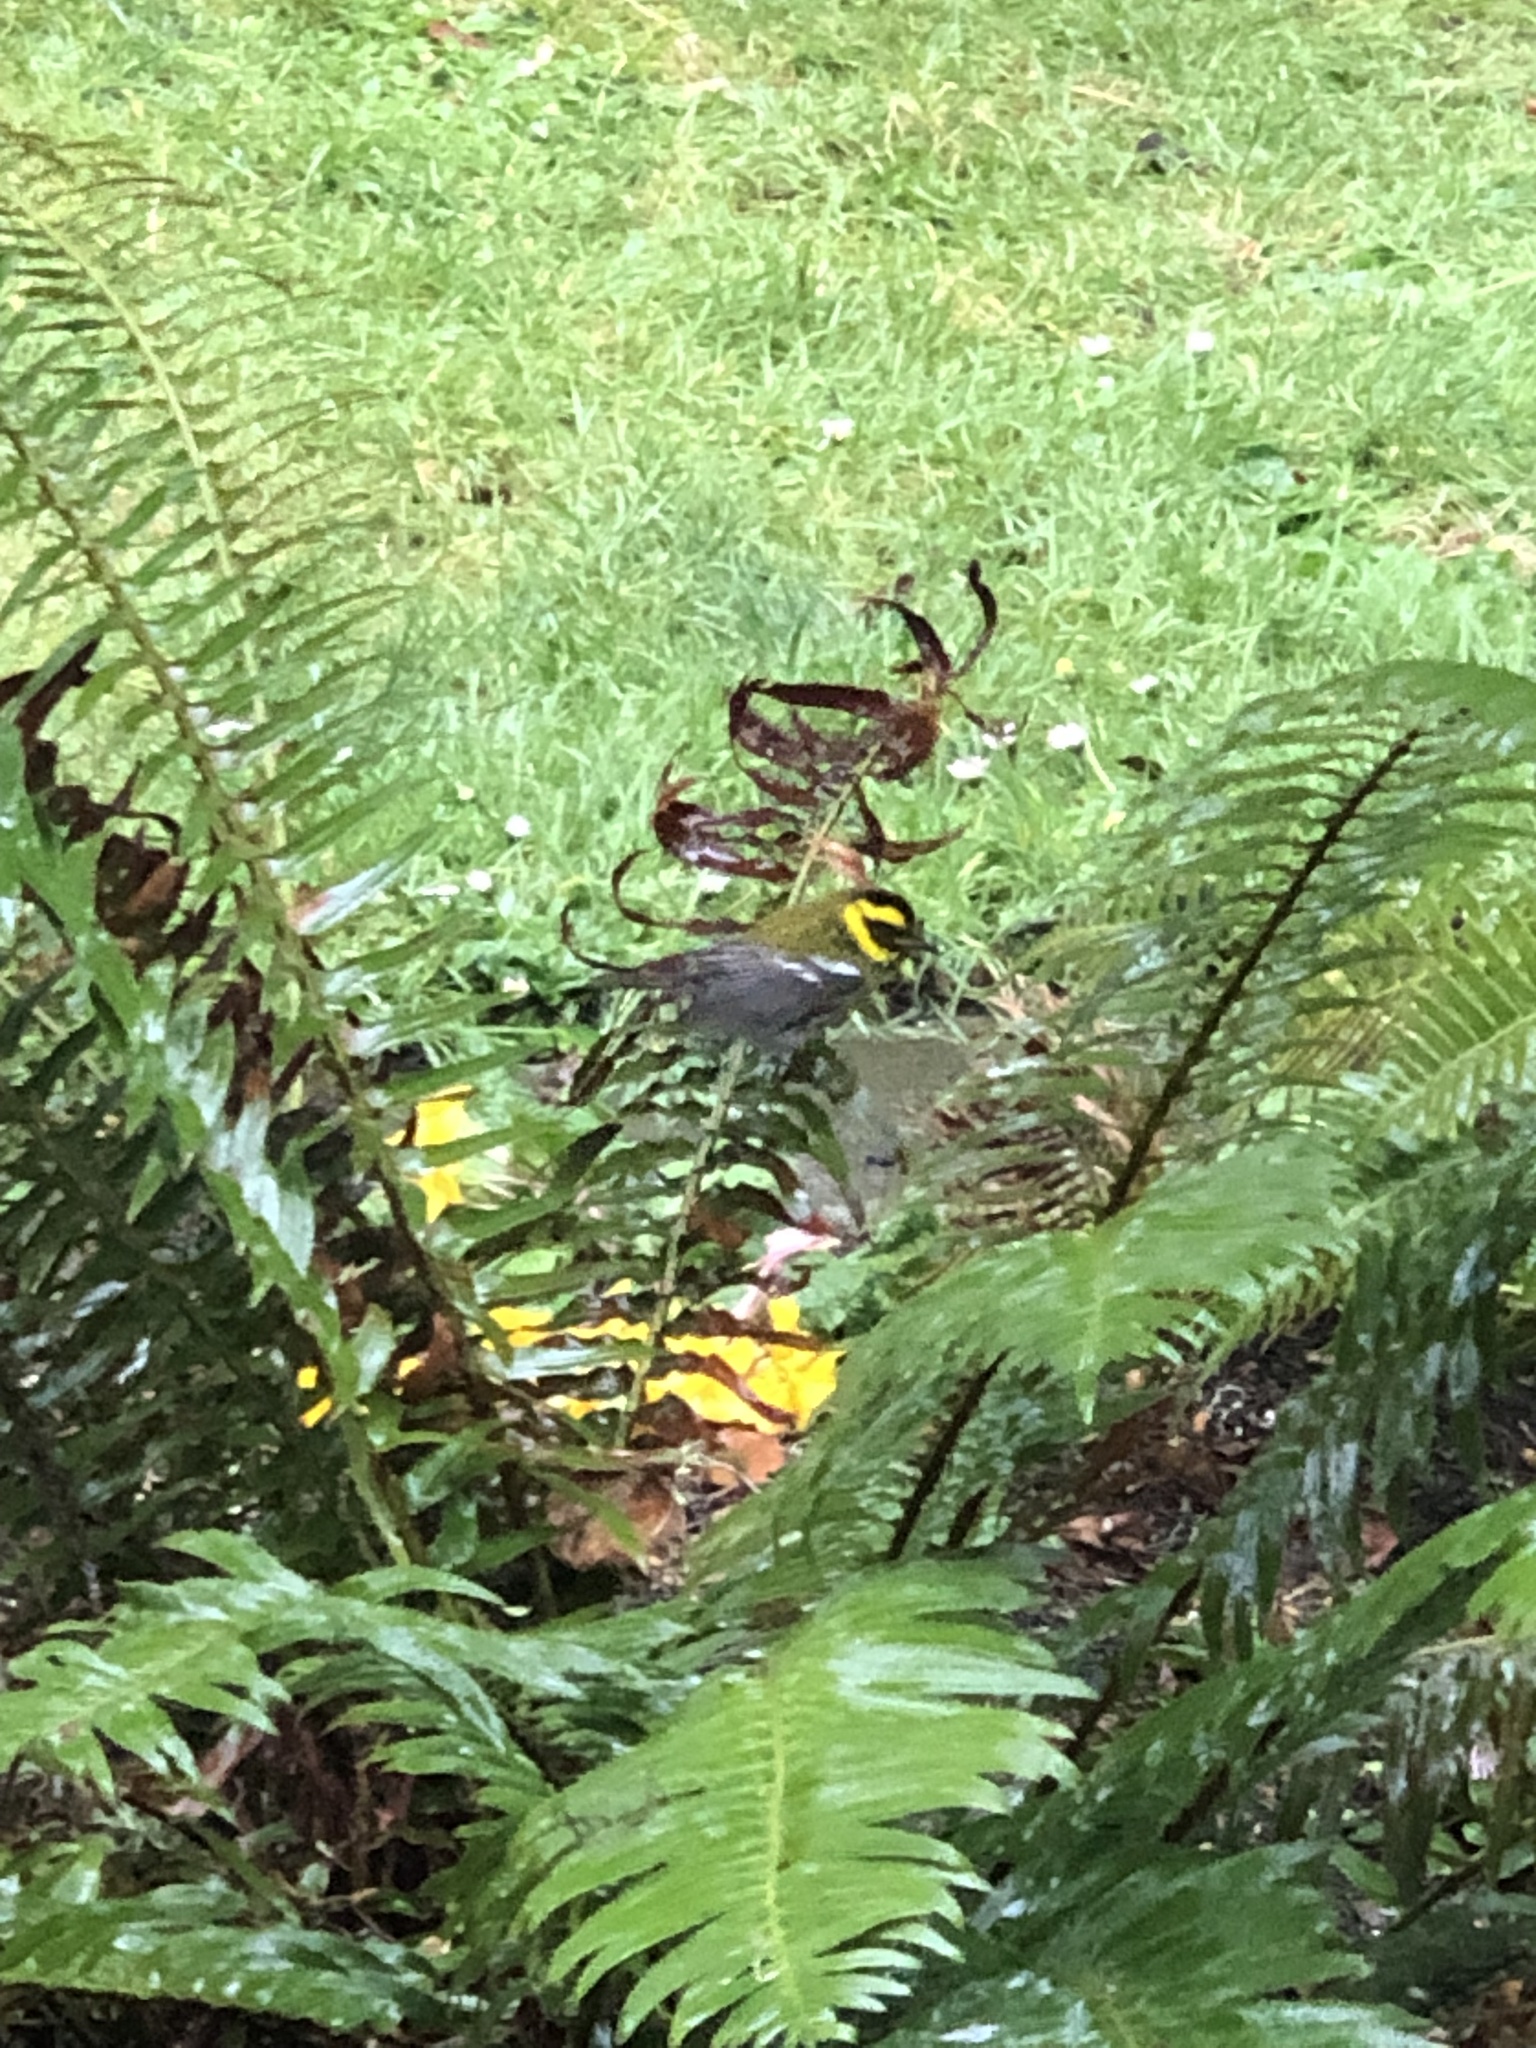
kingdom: Animalia
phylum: Chordata
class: Aves
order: Passeriformes
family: Parulidae
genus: Setophaga
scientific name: Setophaga townsendi
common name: Townsend's warbler
